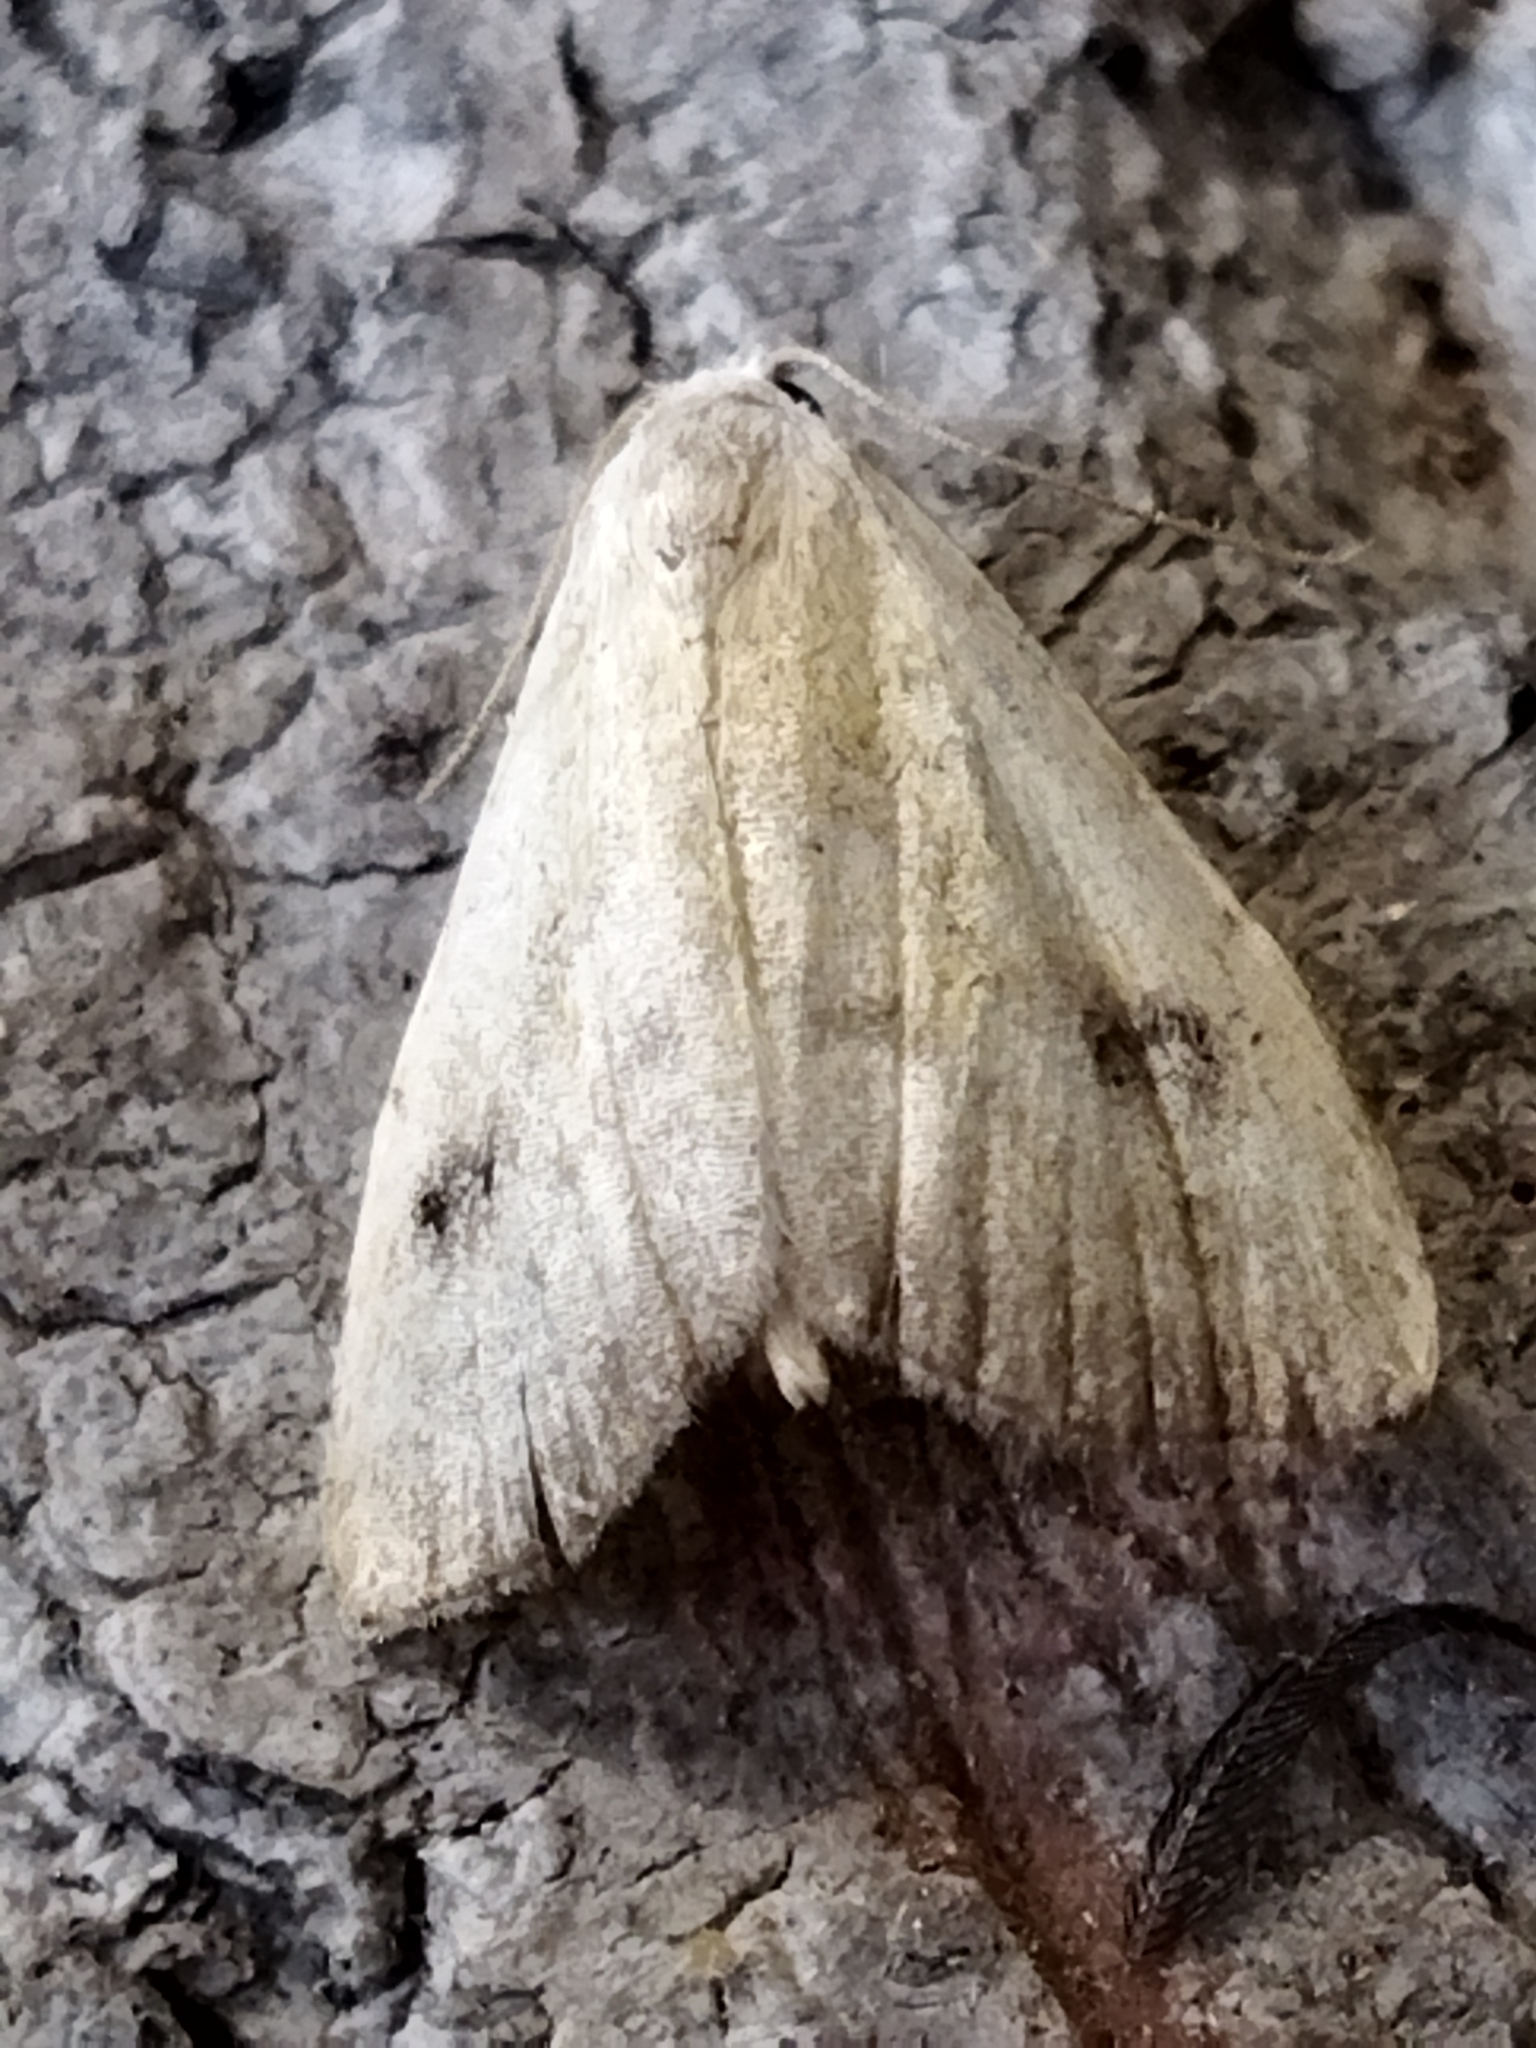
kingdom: Animalia
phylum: Arthropoda
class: Insecta
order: Lepidoptera
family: Erebidae
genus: Rivula
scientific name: Rivula sericealis
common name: Straw dot
